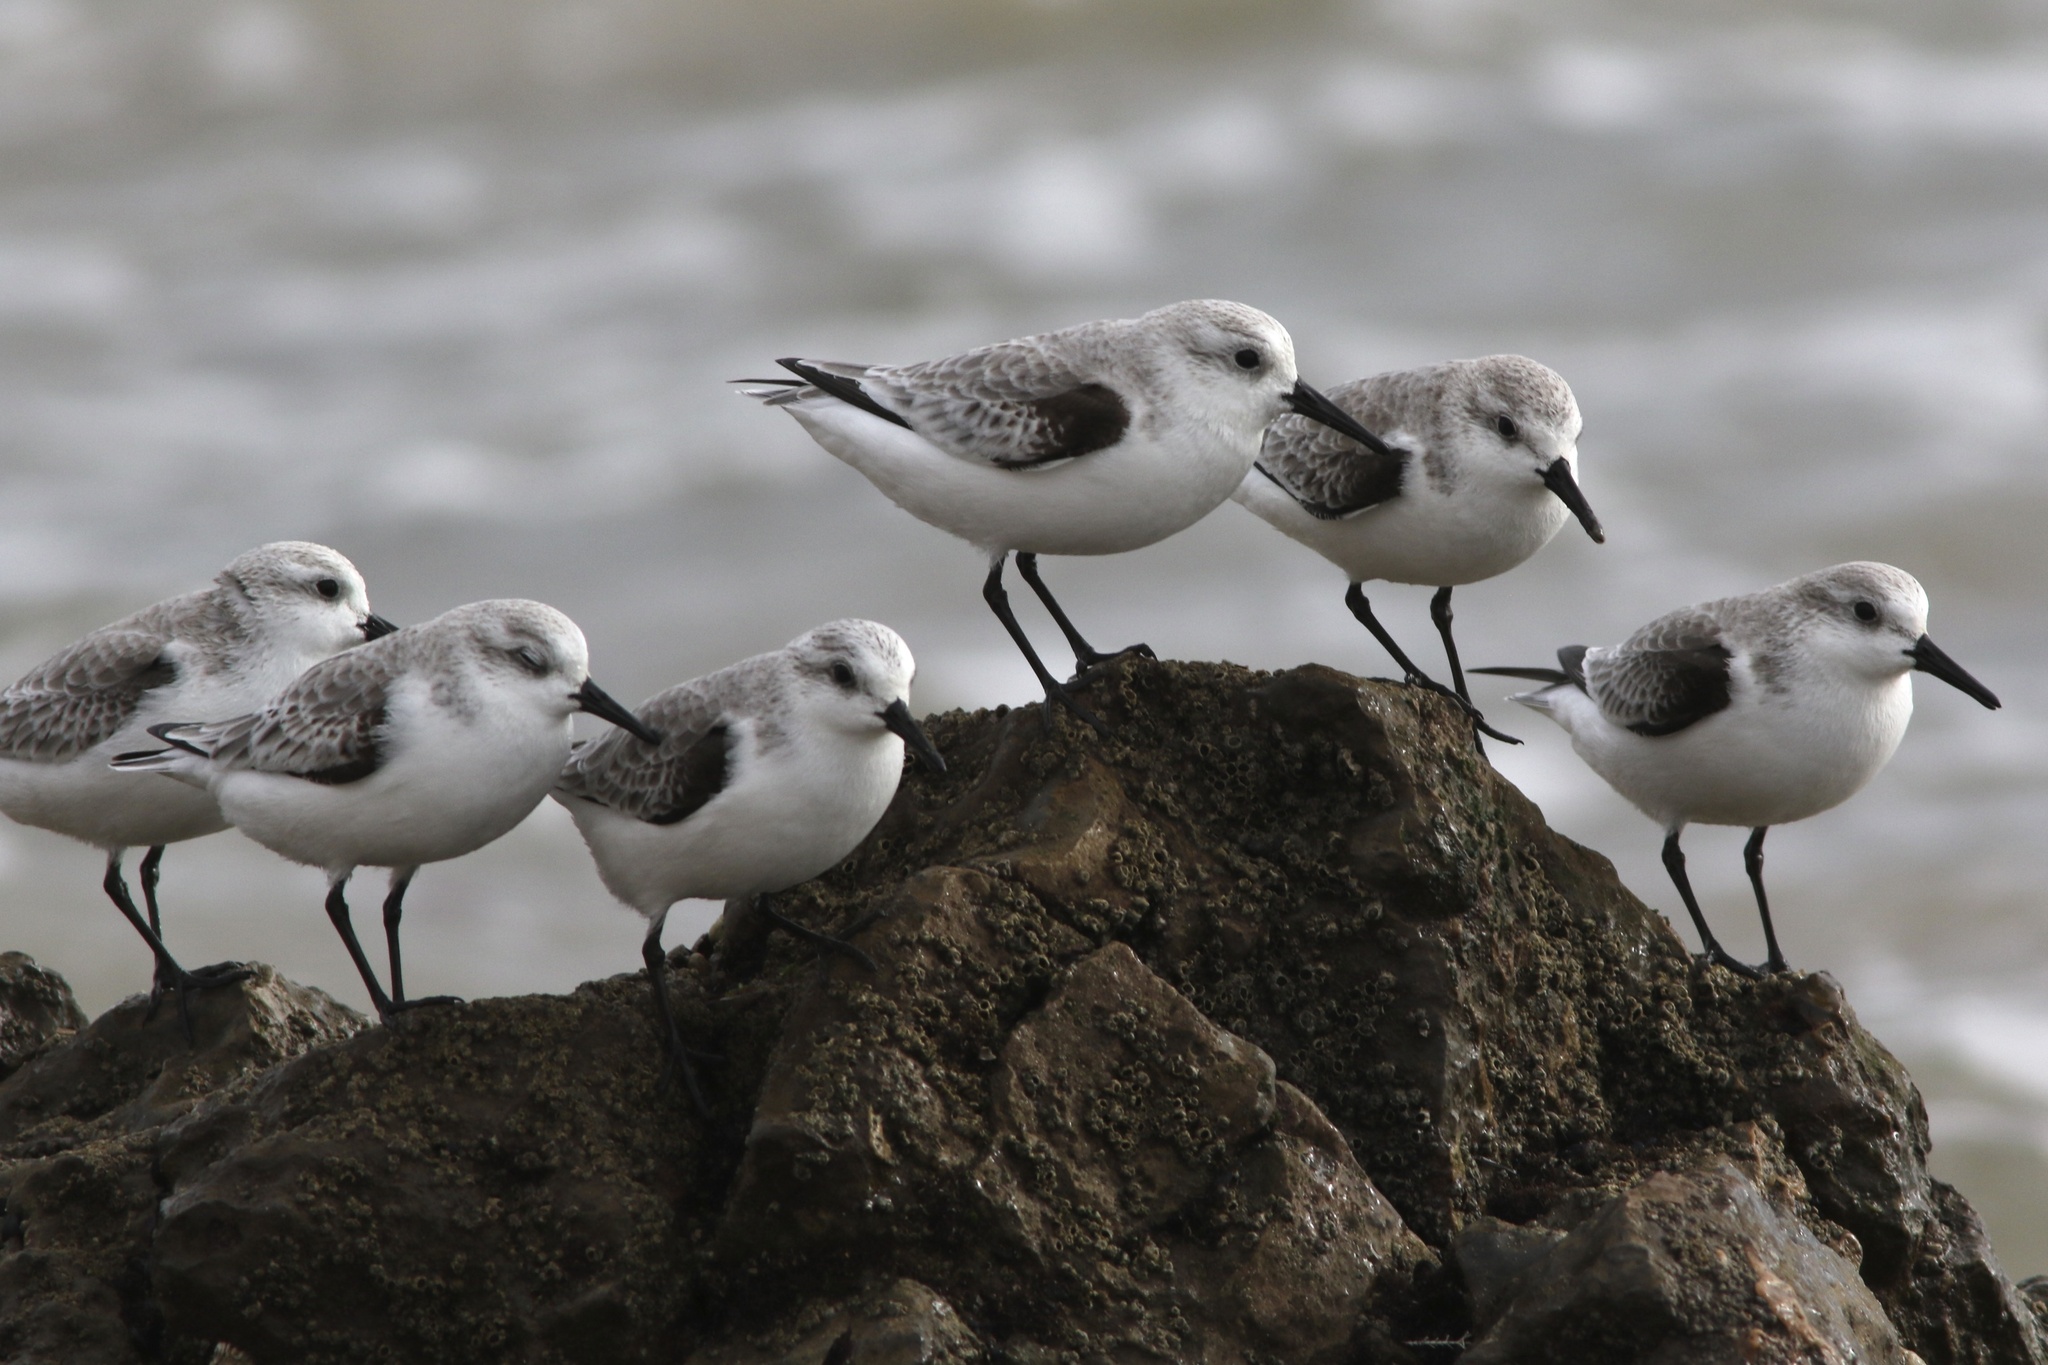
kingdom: Animalia
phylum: Chordata
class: Aves
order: Charadriiformes
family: Scolopacidae
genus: Calidris
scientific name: Calidris alba
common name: Sanderling
